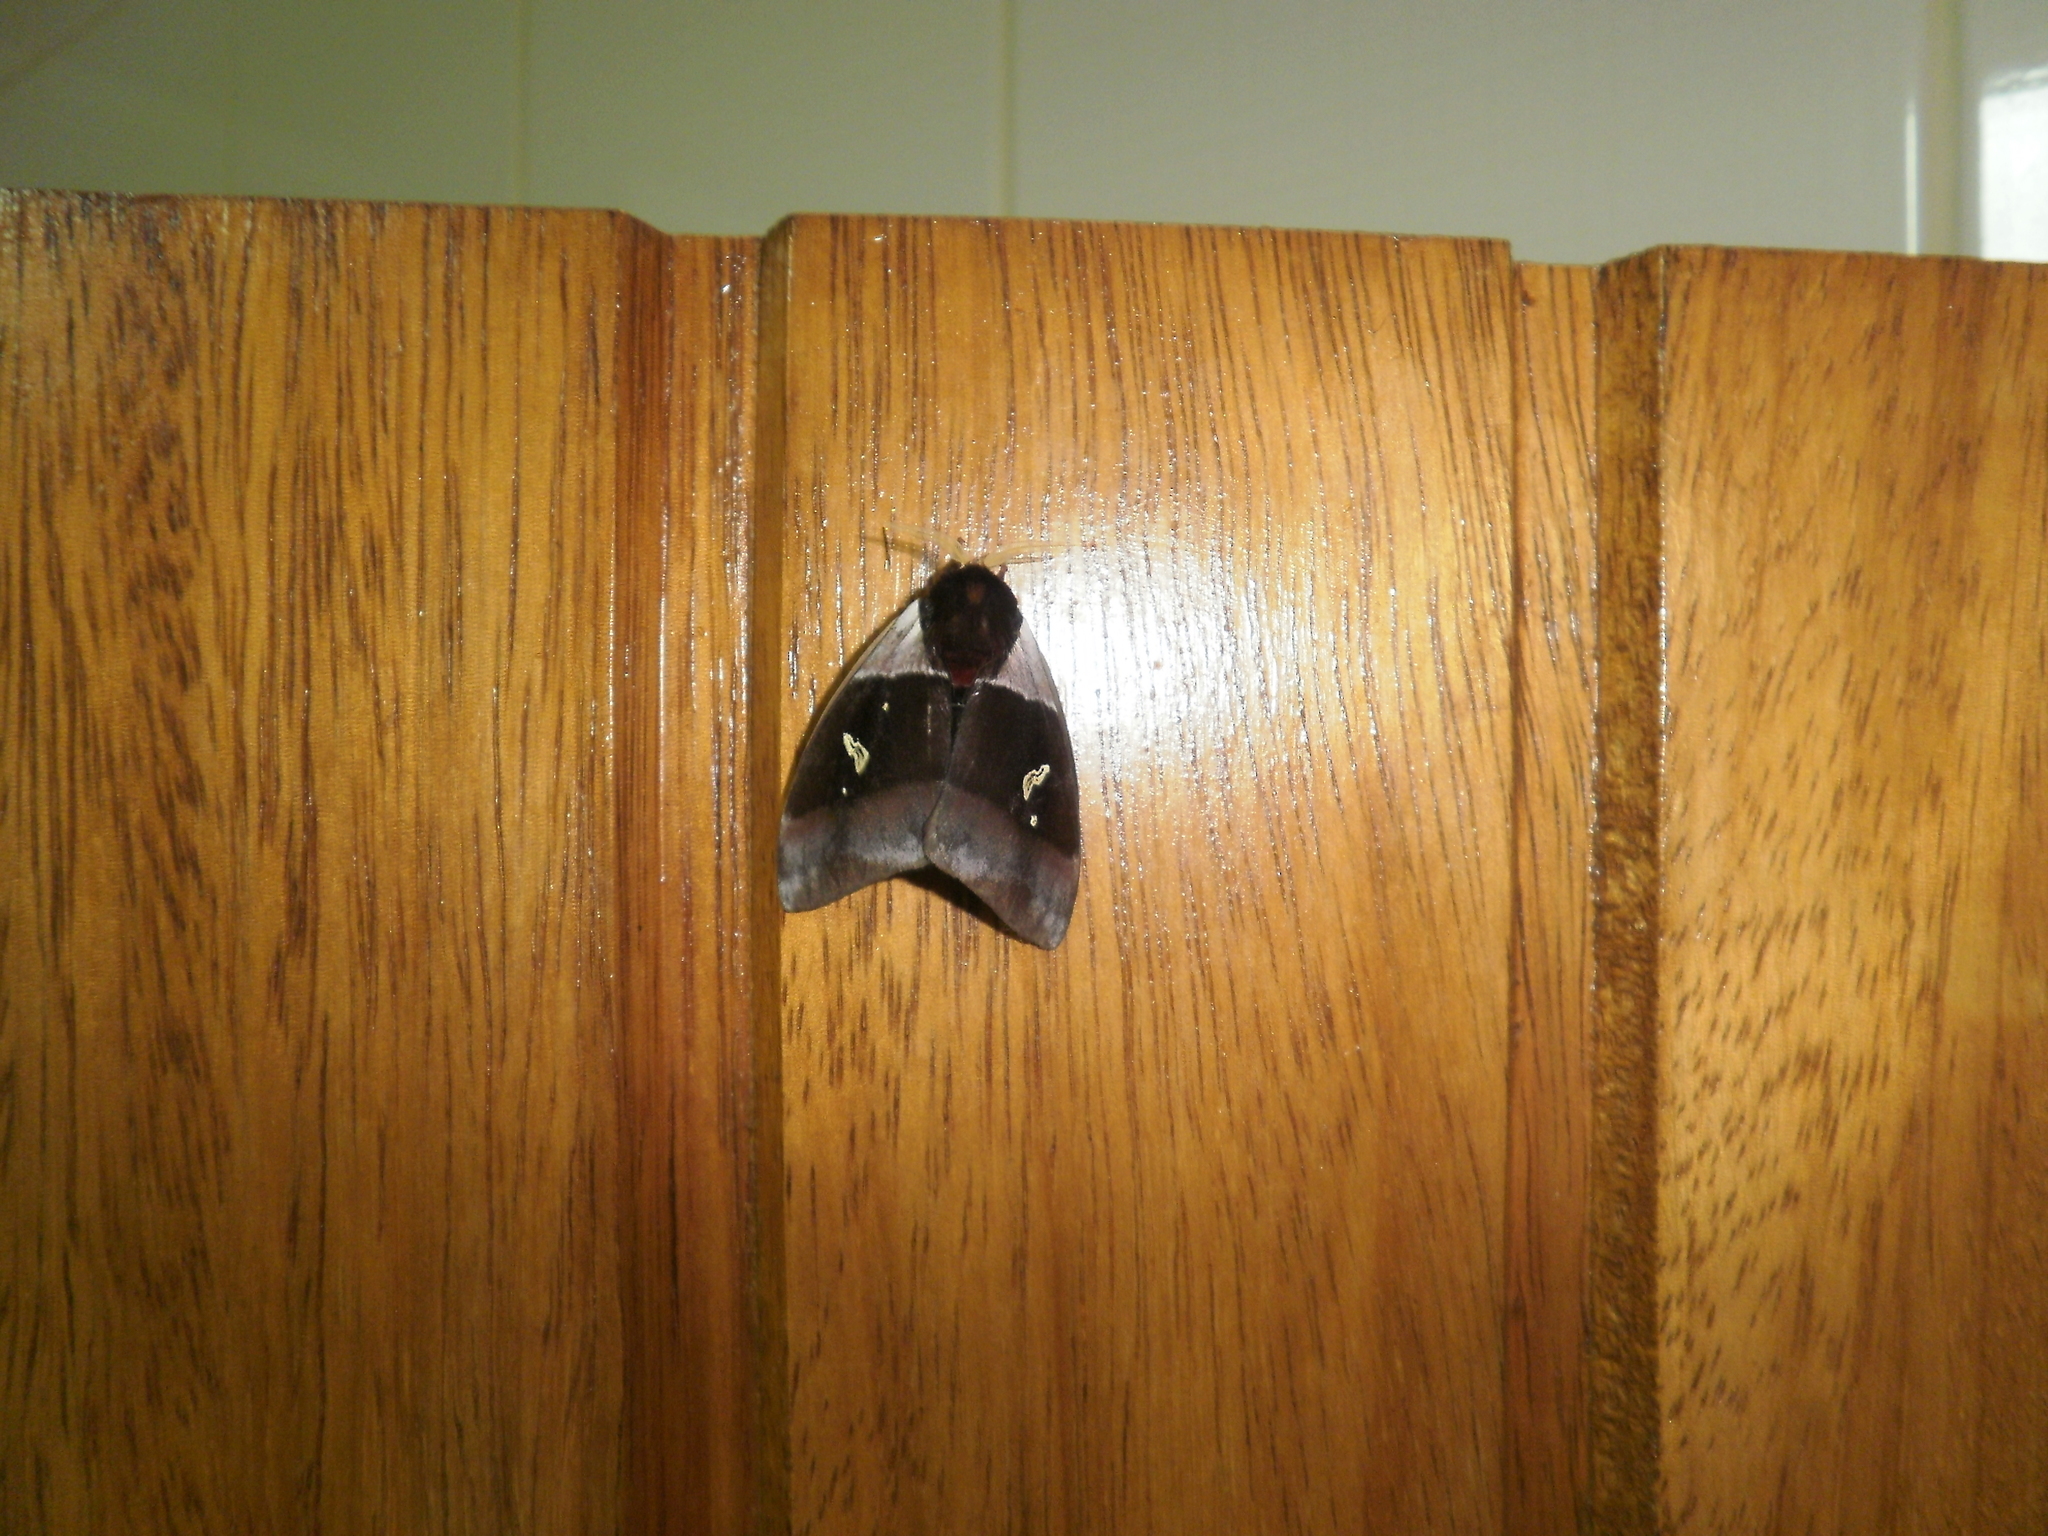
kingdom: Animalia
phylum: Arthropoda
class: Insecta
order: Lepidoptera
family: Saturniidae
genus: Dirphiopsis
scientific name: Dirphiopsis trisignata
